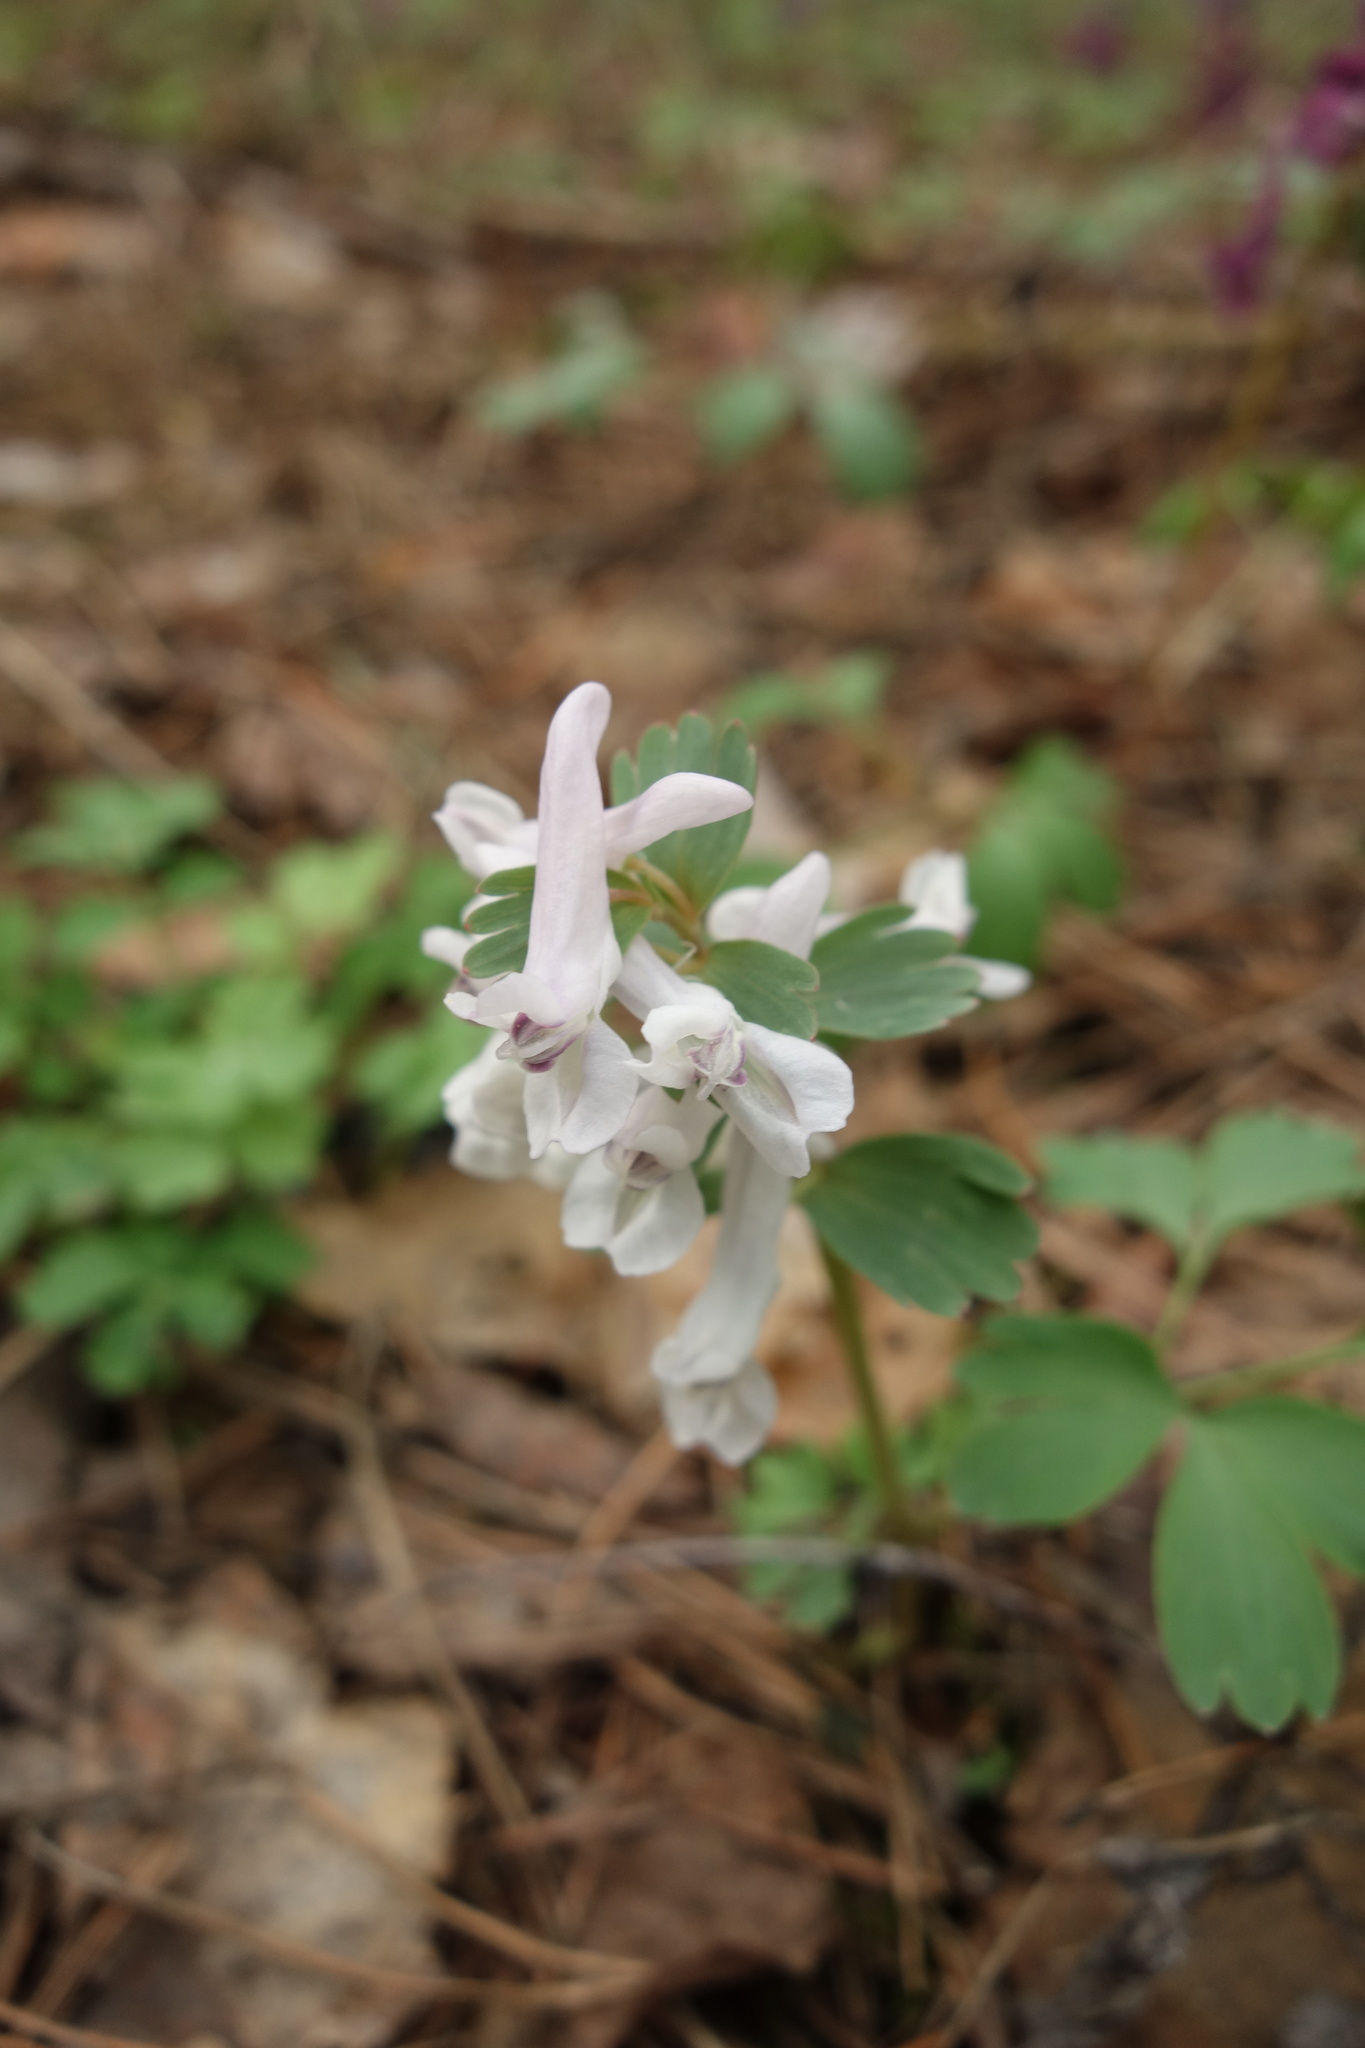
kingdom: Plantae
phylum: Tracheophyta
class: Magnoliopsida
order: Ranunculales
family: Papaveraceae
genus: Corydalis
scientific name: Corydalis solida
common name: Bird-in-a-bush
